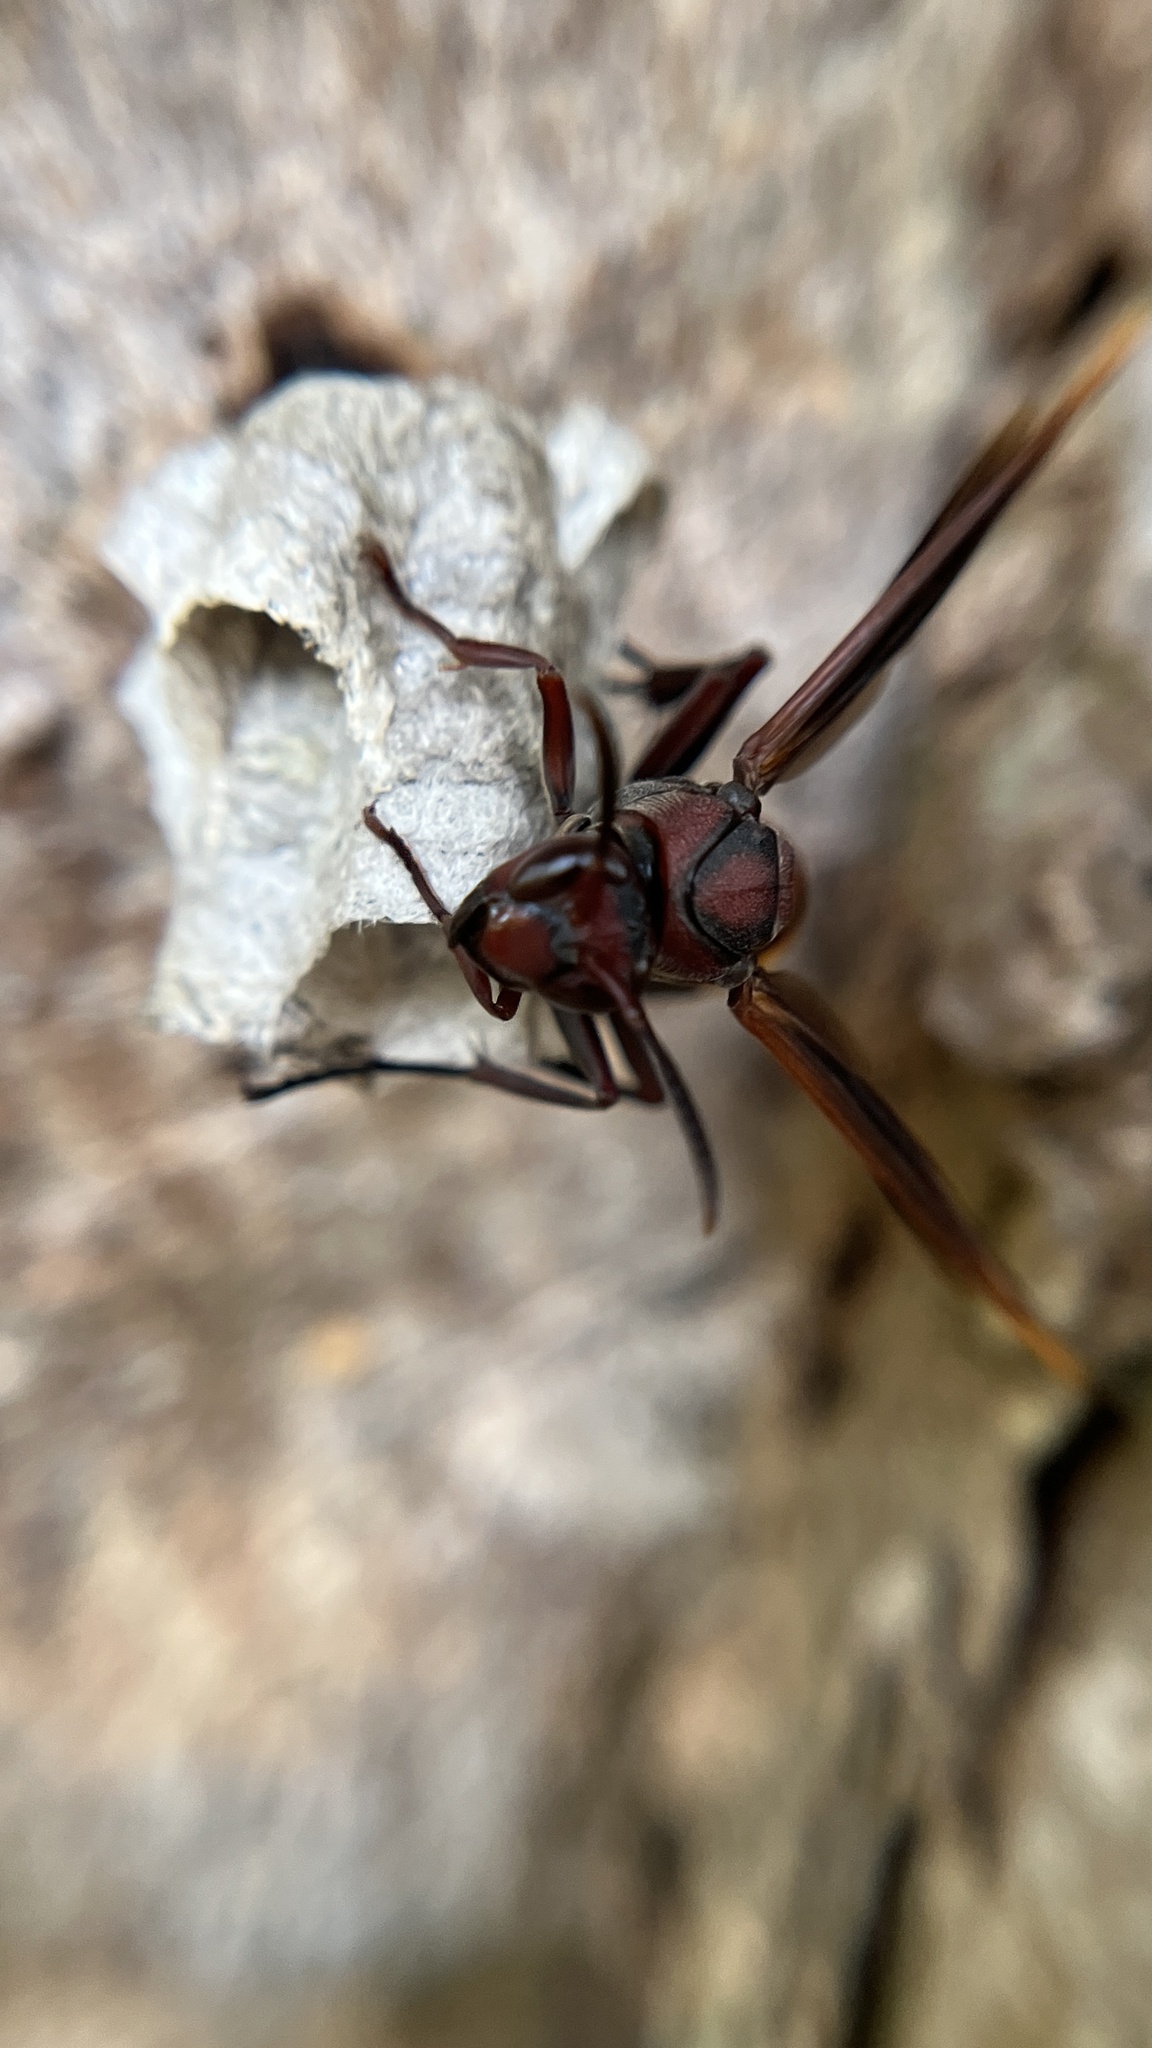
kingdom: Animalia
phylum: Arthropoda
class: Insecta
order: Hymenoptera
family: Eumenidae
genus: Polistes
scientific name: Polistes sagittarius
